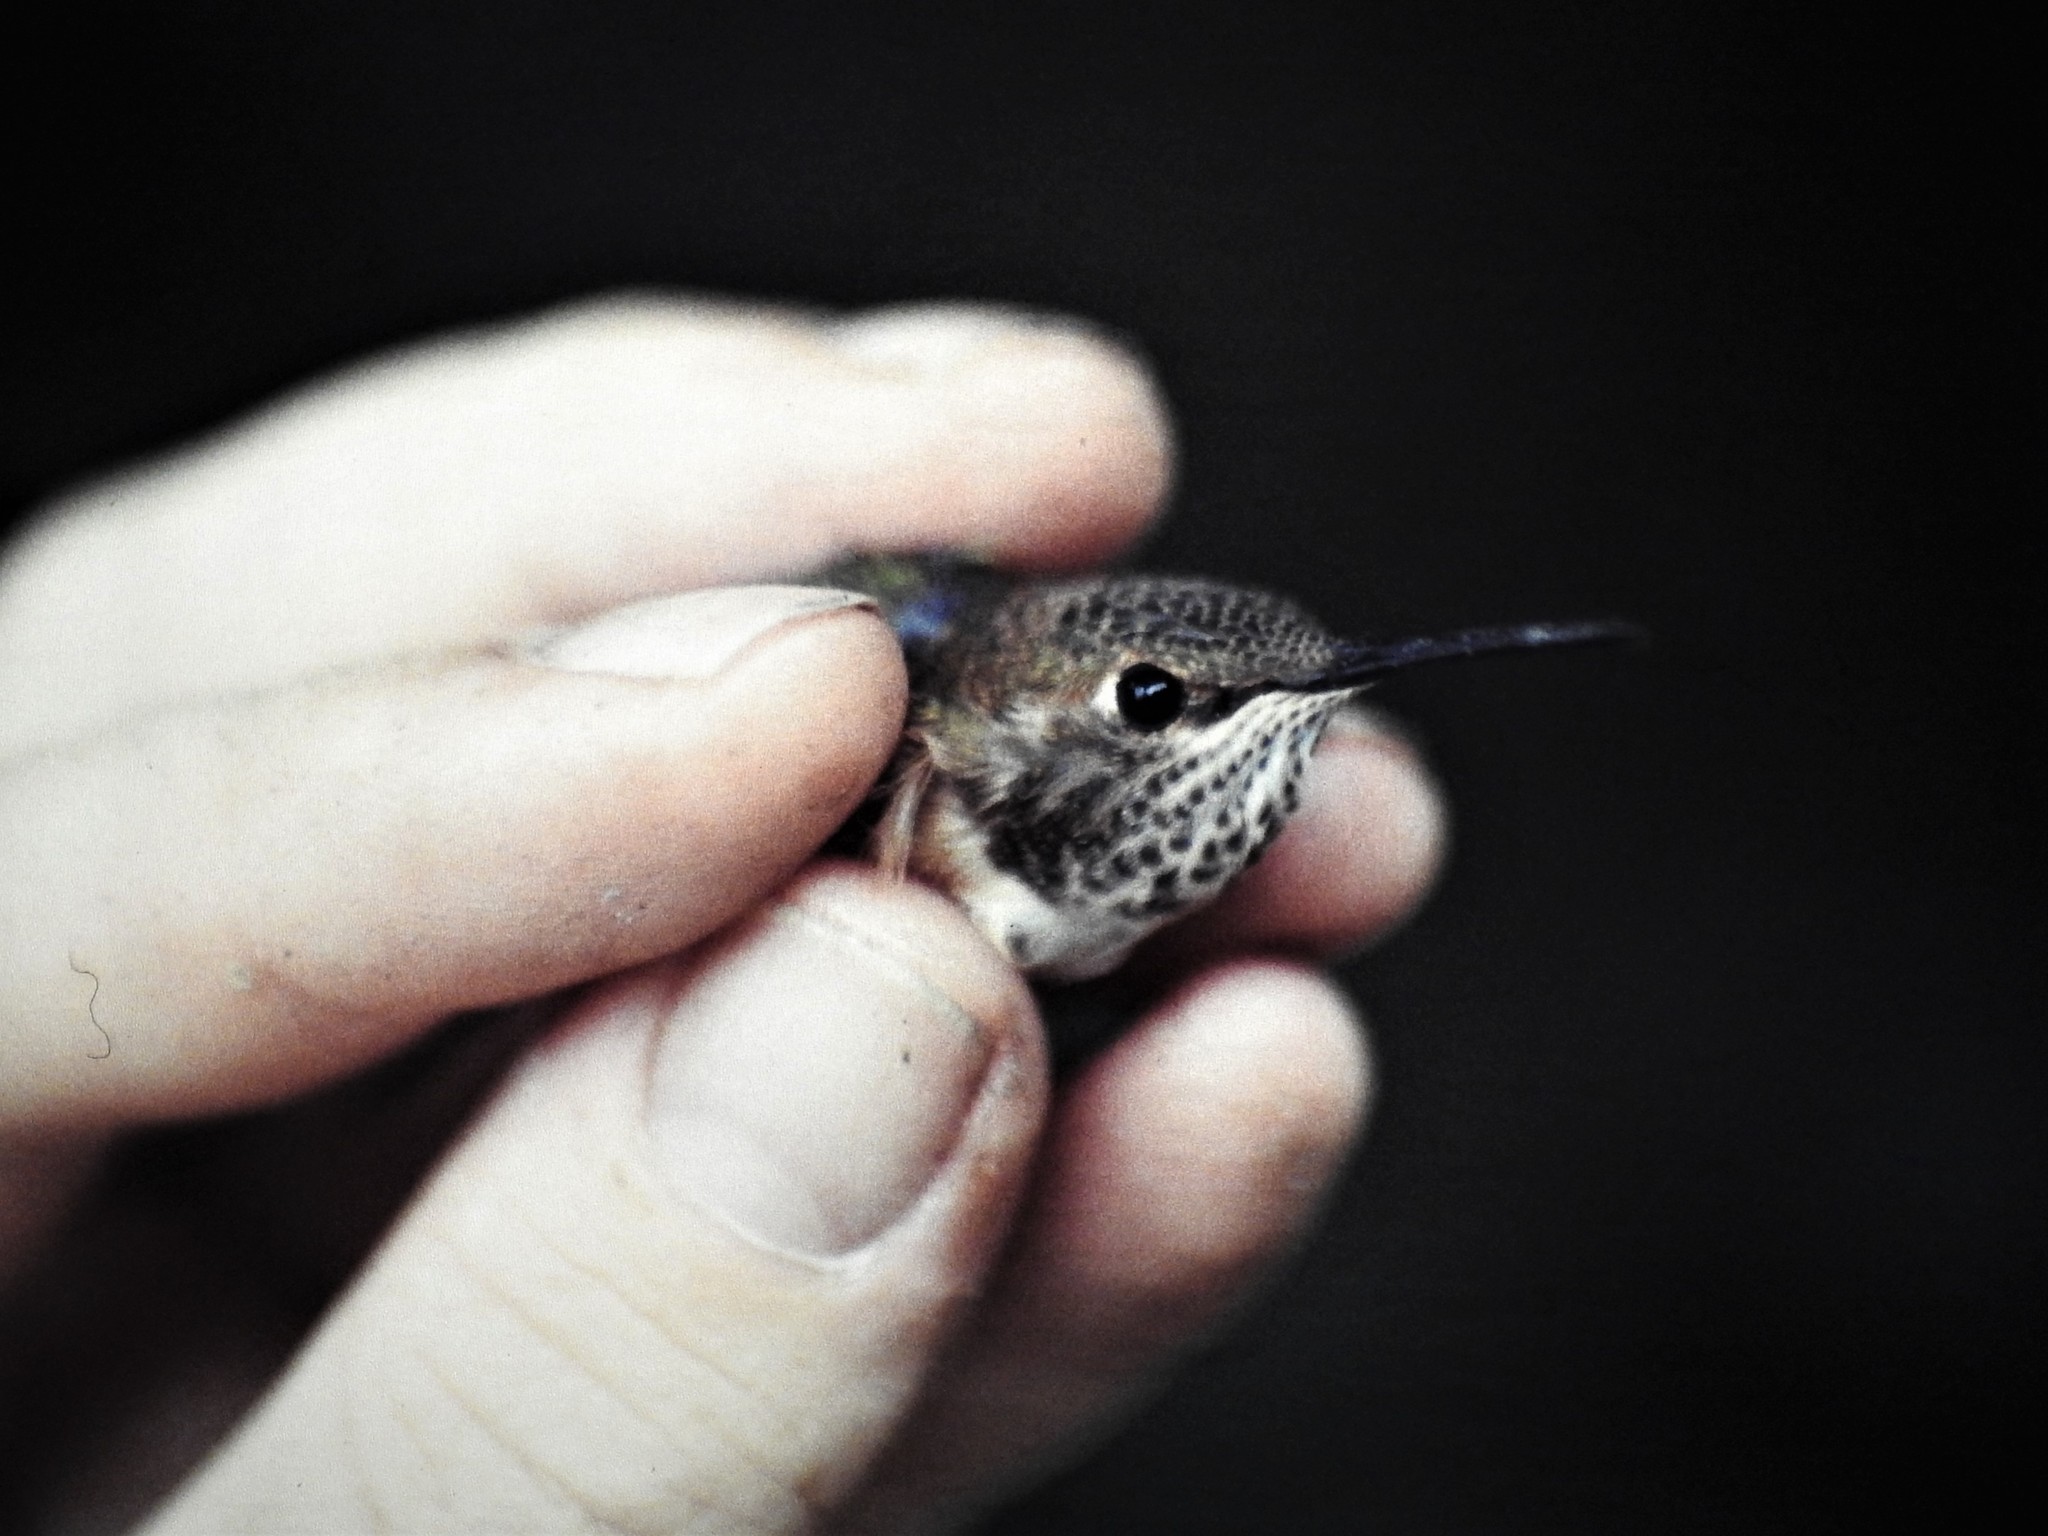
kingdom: Animalia
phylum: Chordata
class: Aves
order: Apodiformes
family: Trochilidae
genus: Selasphorus
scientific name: Selasphorus rufus
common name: Rufous hummingbird
